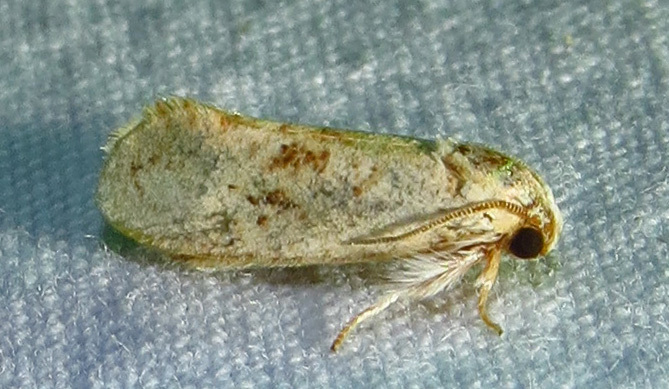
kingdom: Animalia
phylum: Arthropoda
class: Insecta
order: Lepidoptera
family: Tineidae
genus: Acrolophus
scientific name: Acrolophus mycetophagus
